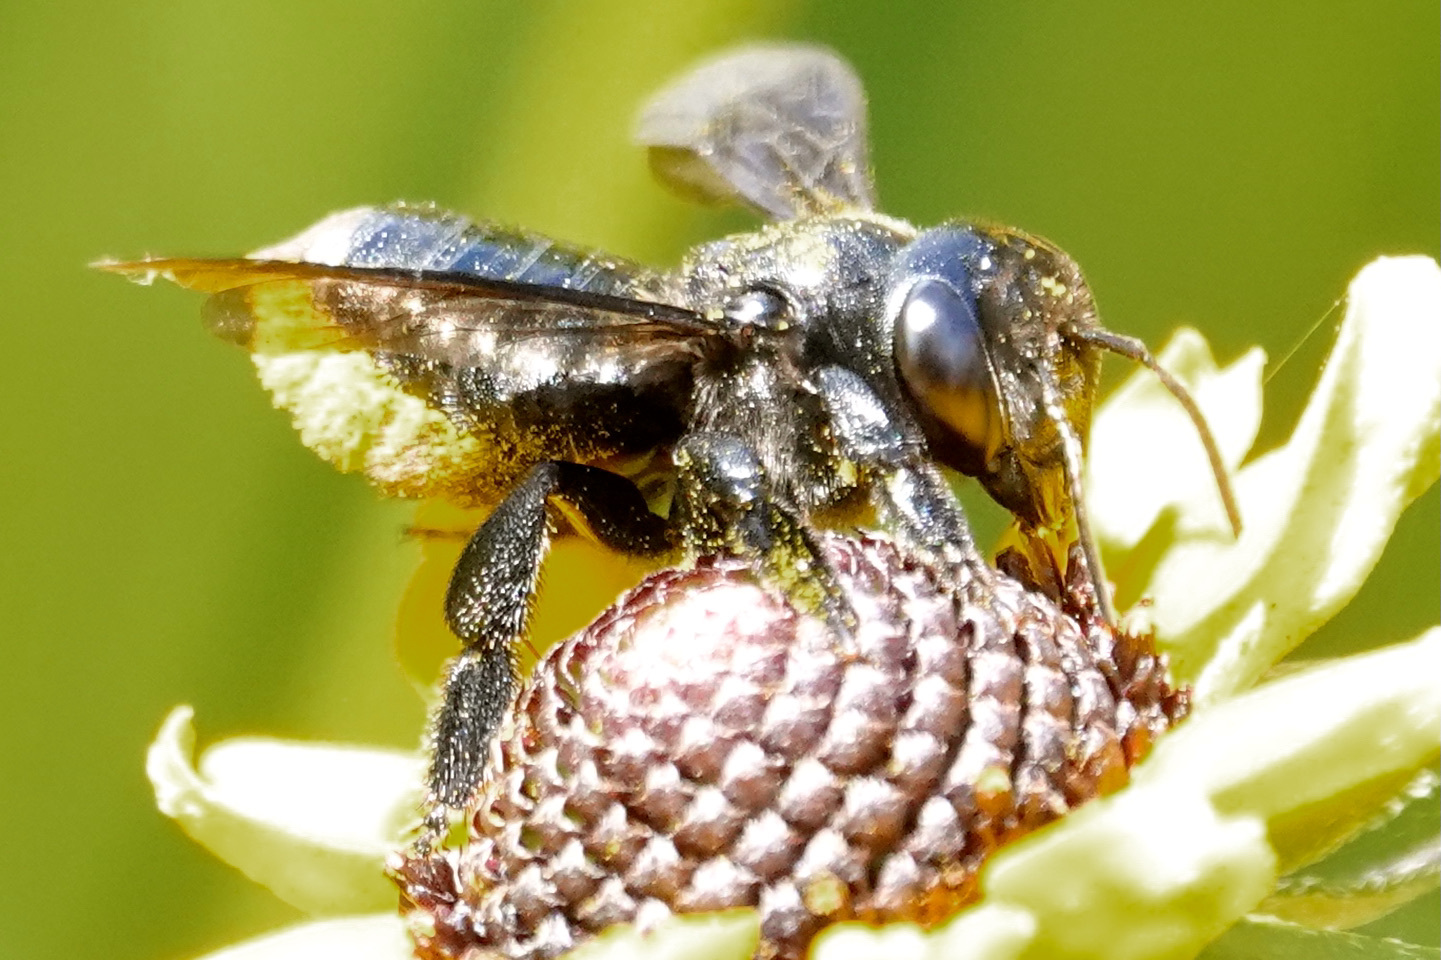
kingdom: Animalia
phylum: Arthropoda
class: Insecta
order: Hymenoptera
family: Megachilidae
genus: Megachile
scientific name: Megachile xylocopoides
